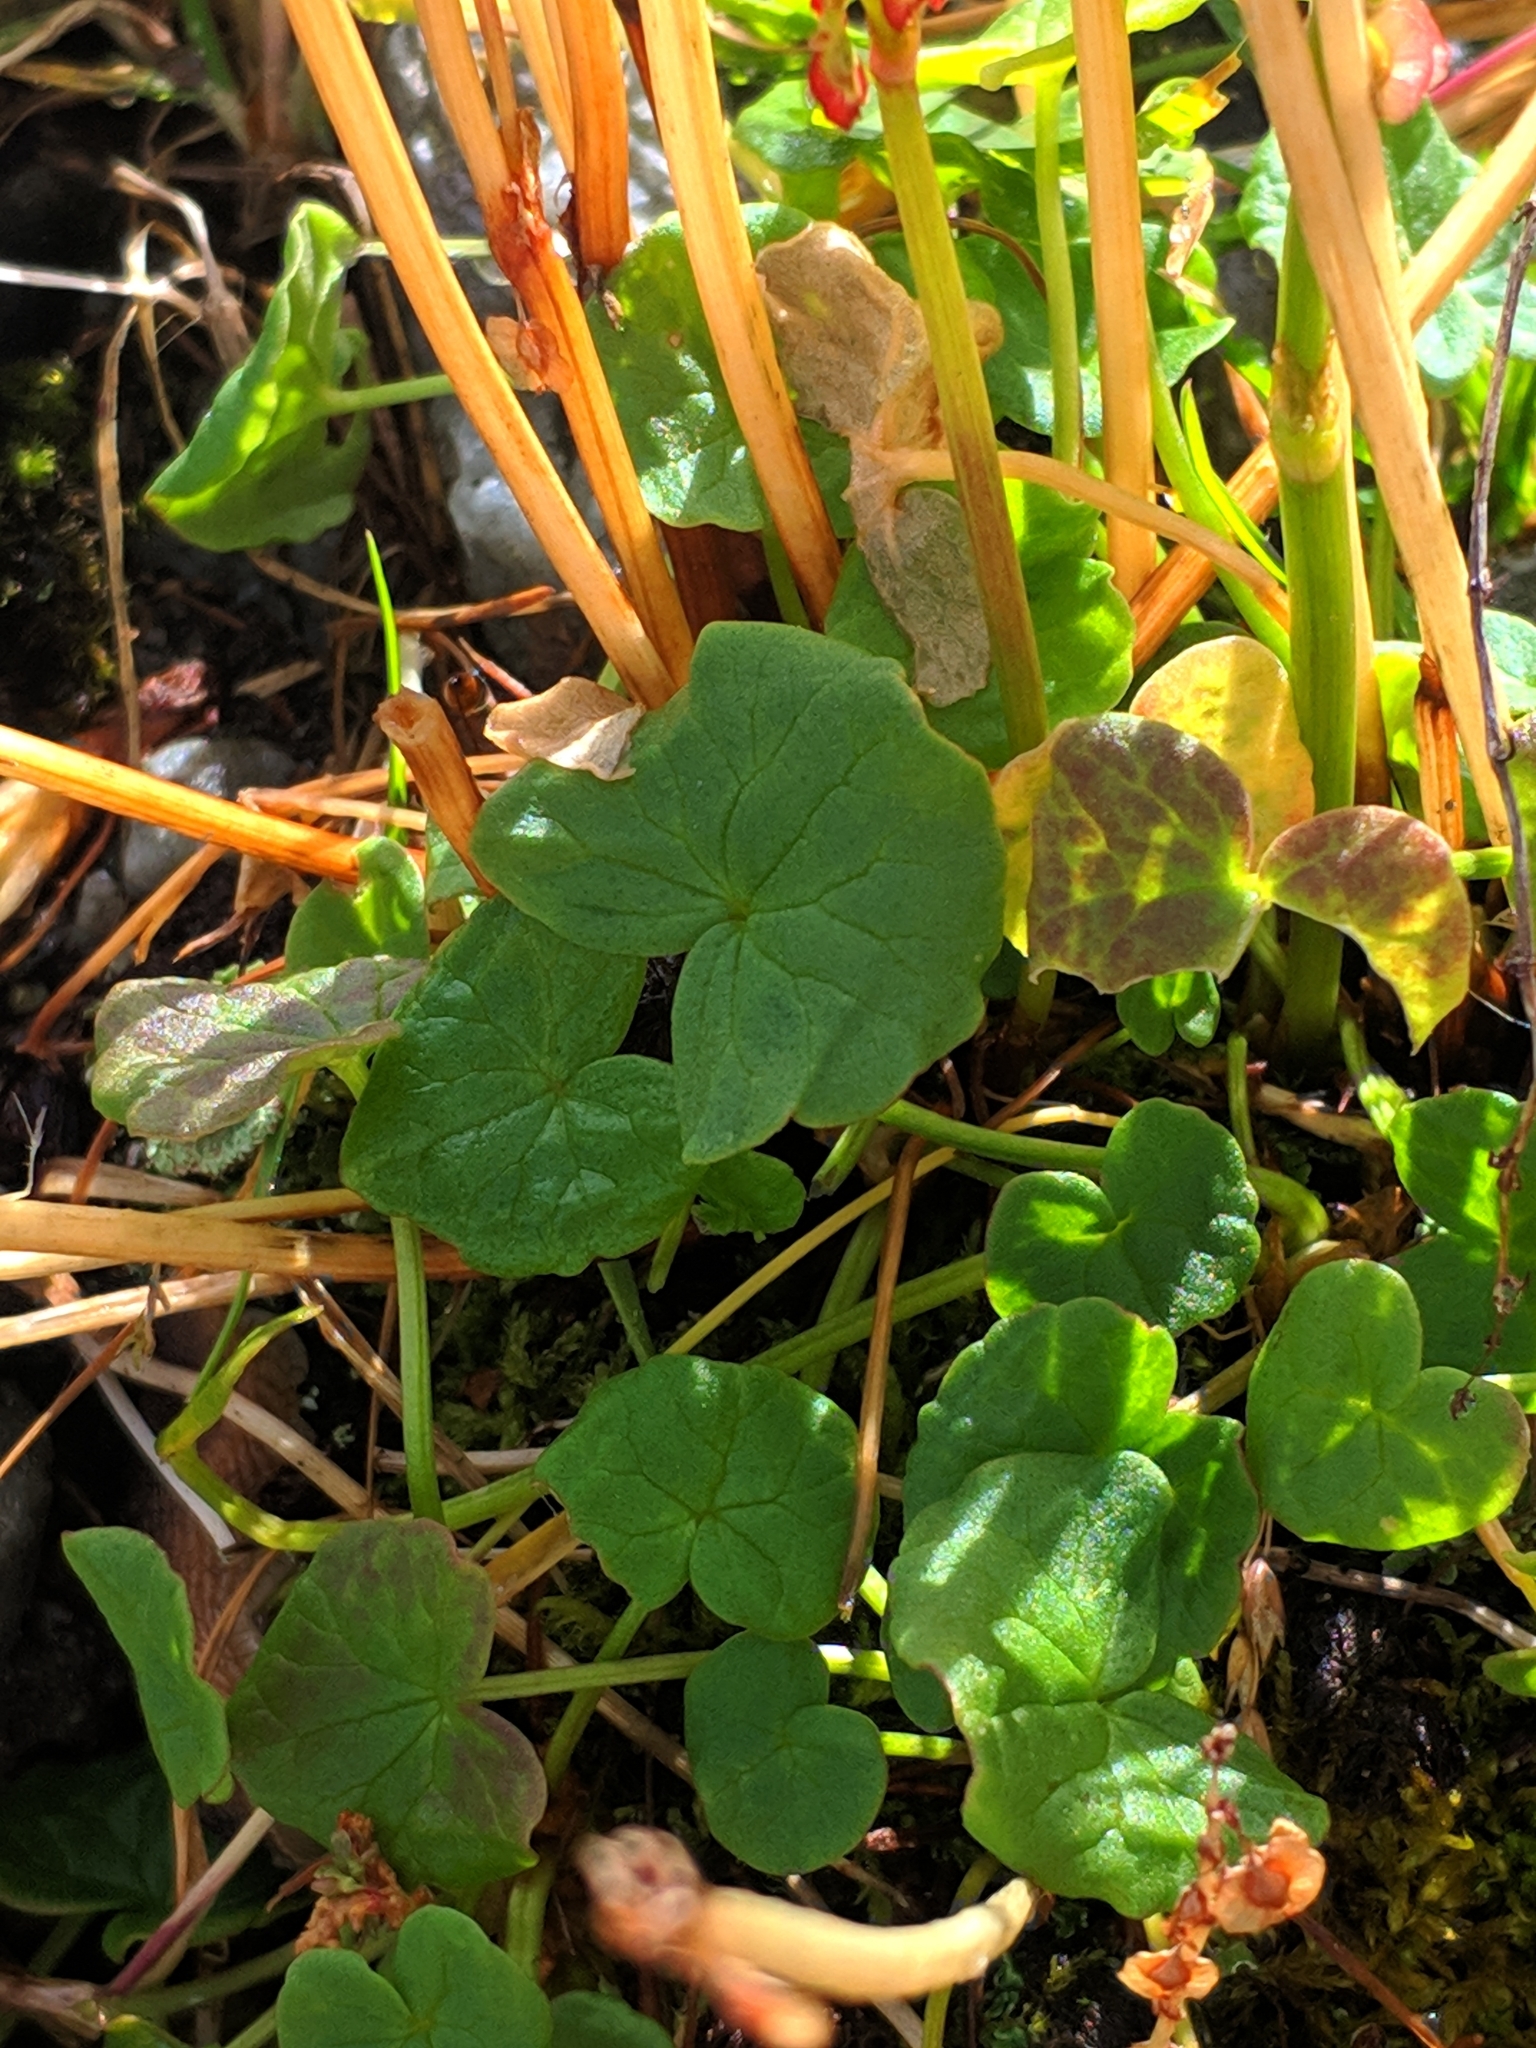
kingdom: Plantae
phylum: Tracheophyta
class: Magnoliopsida
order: Caryophyllales
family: Polygonaceae
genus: Oxyria
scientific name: Oxyria digyna
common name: Alpine mountain-sorrel
